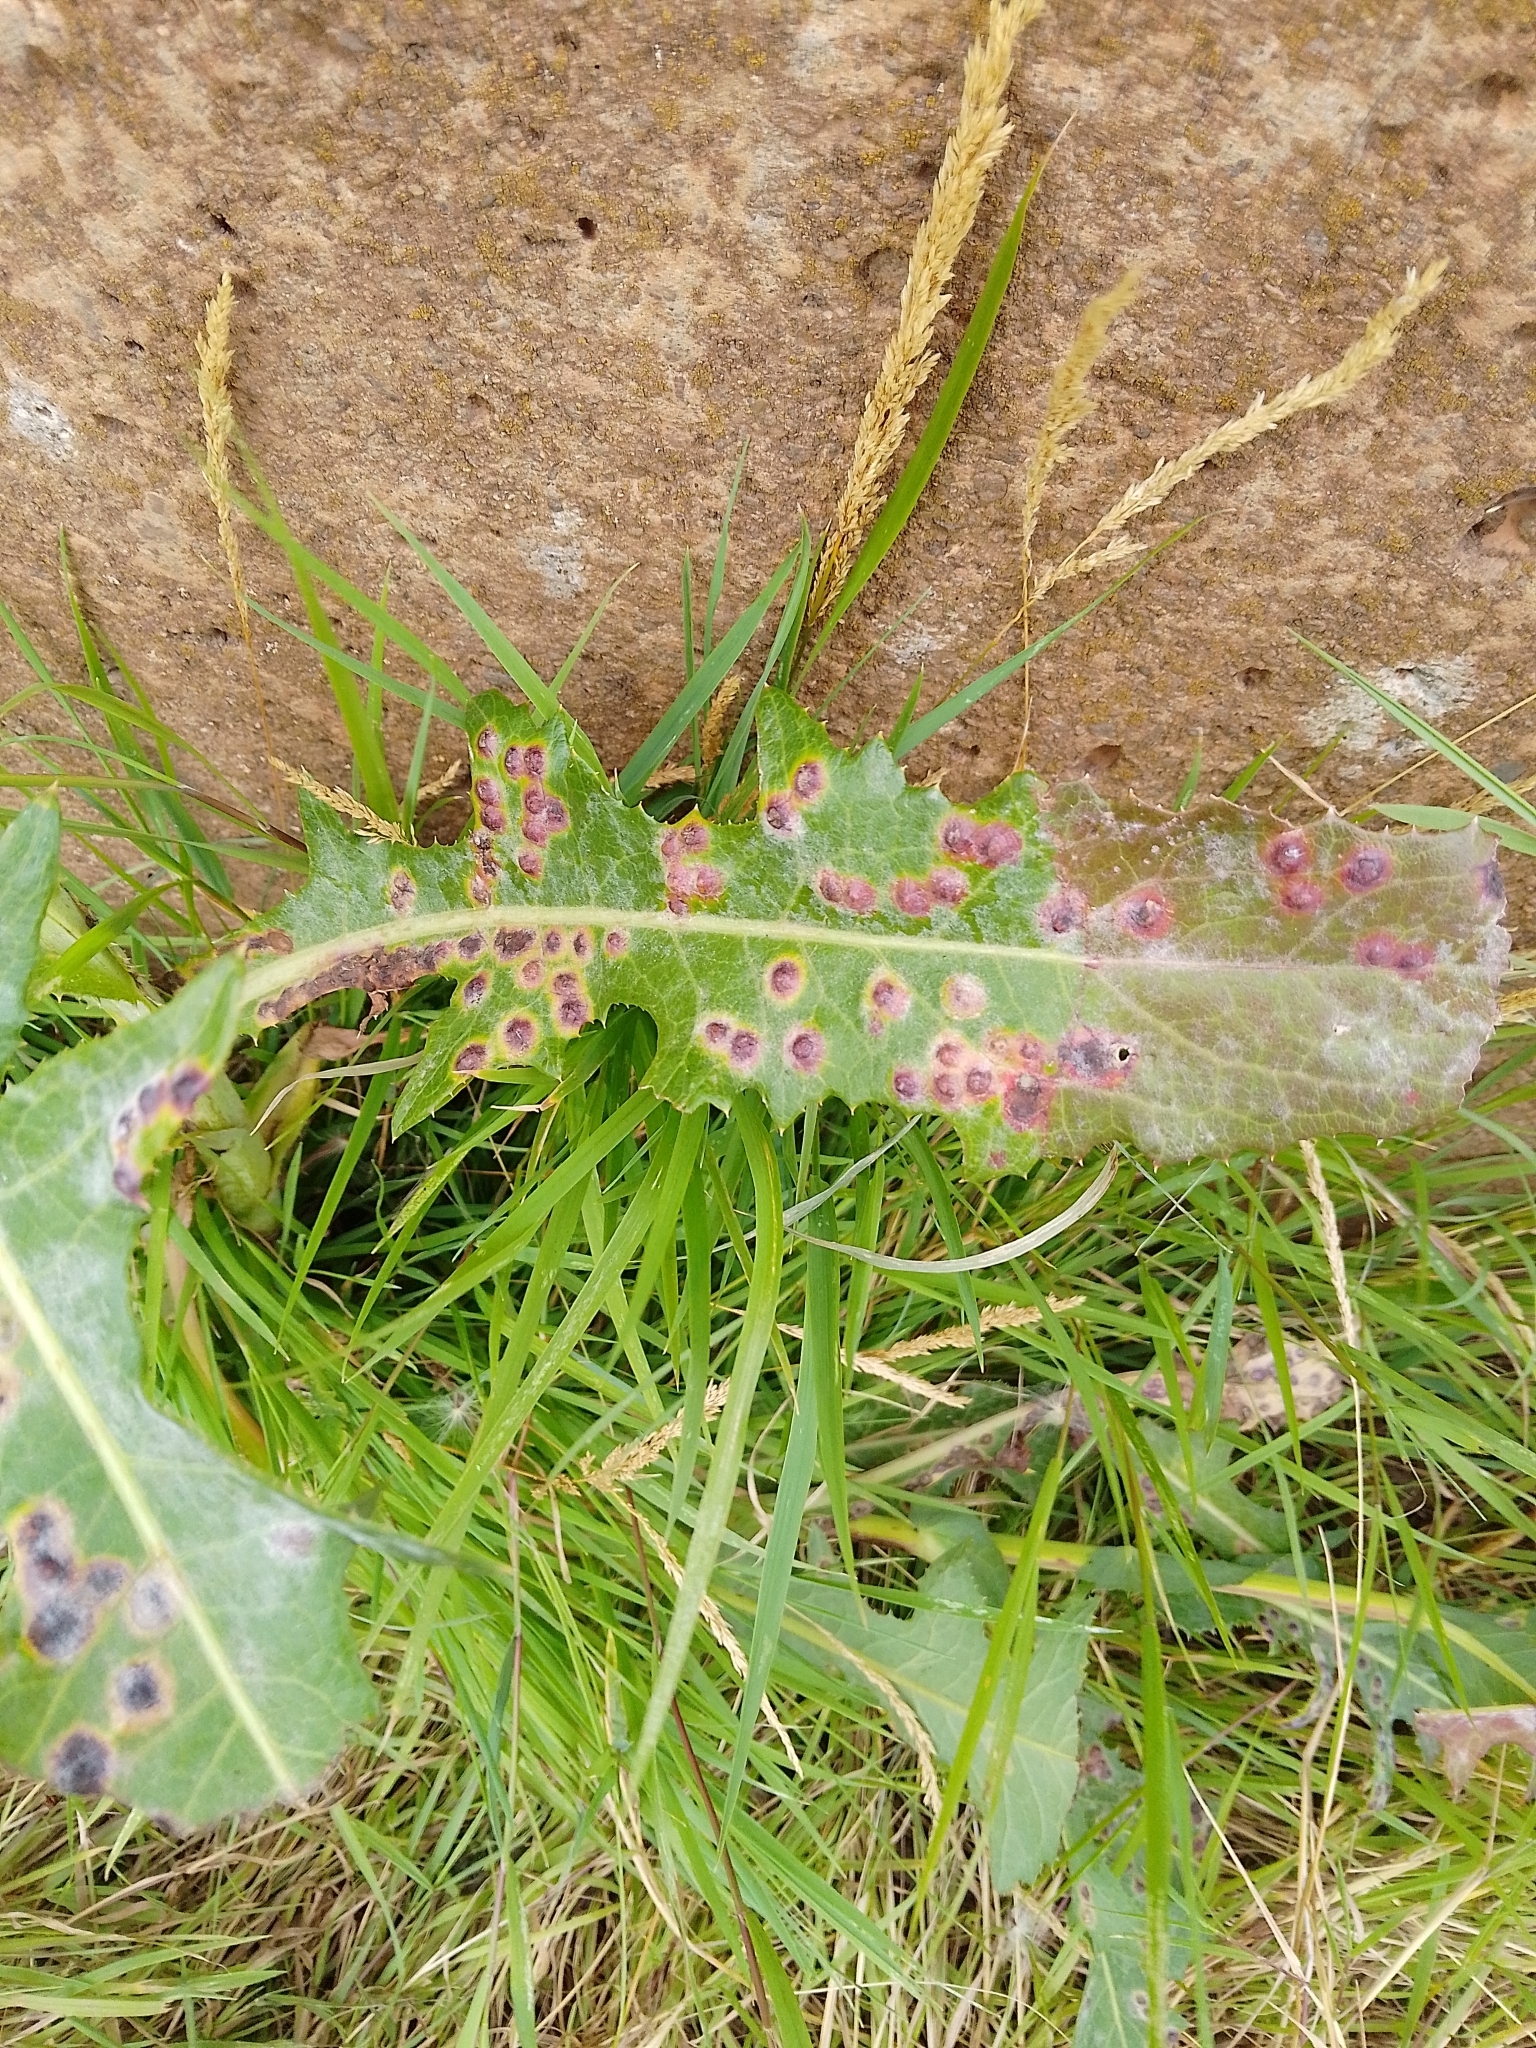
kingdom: Animalia
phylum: Arthropoda
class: Insecta
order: Diptera
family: Cecidomyiidae
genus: Cystiphora
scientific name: Cystiphora sonchi
